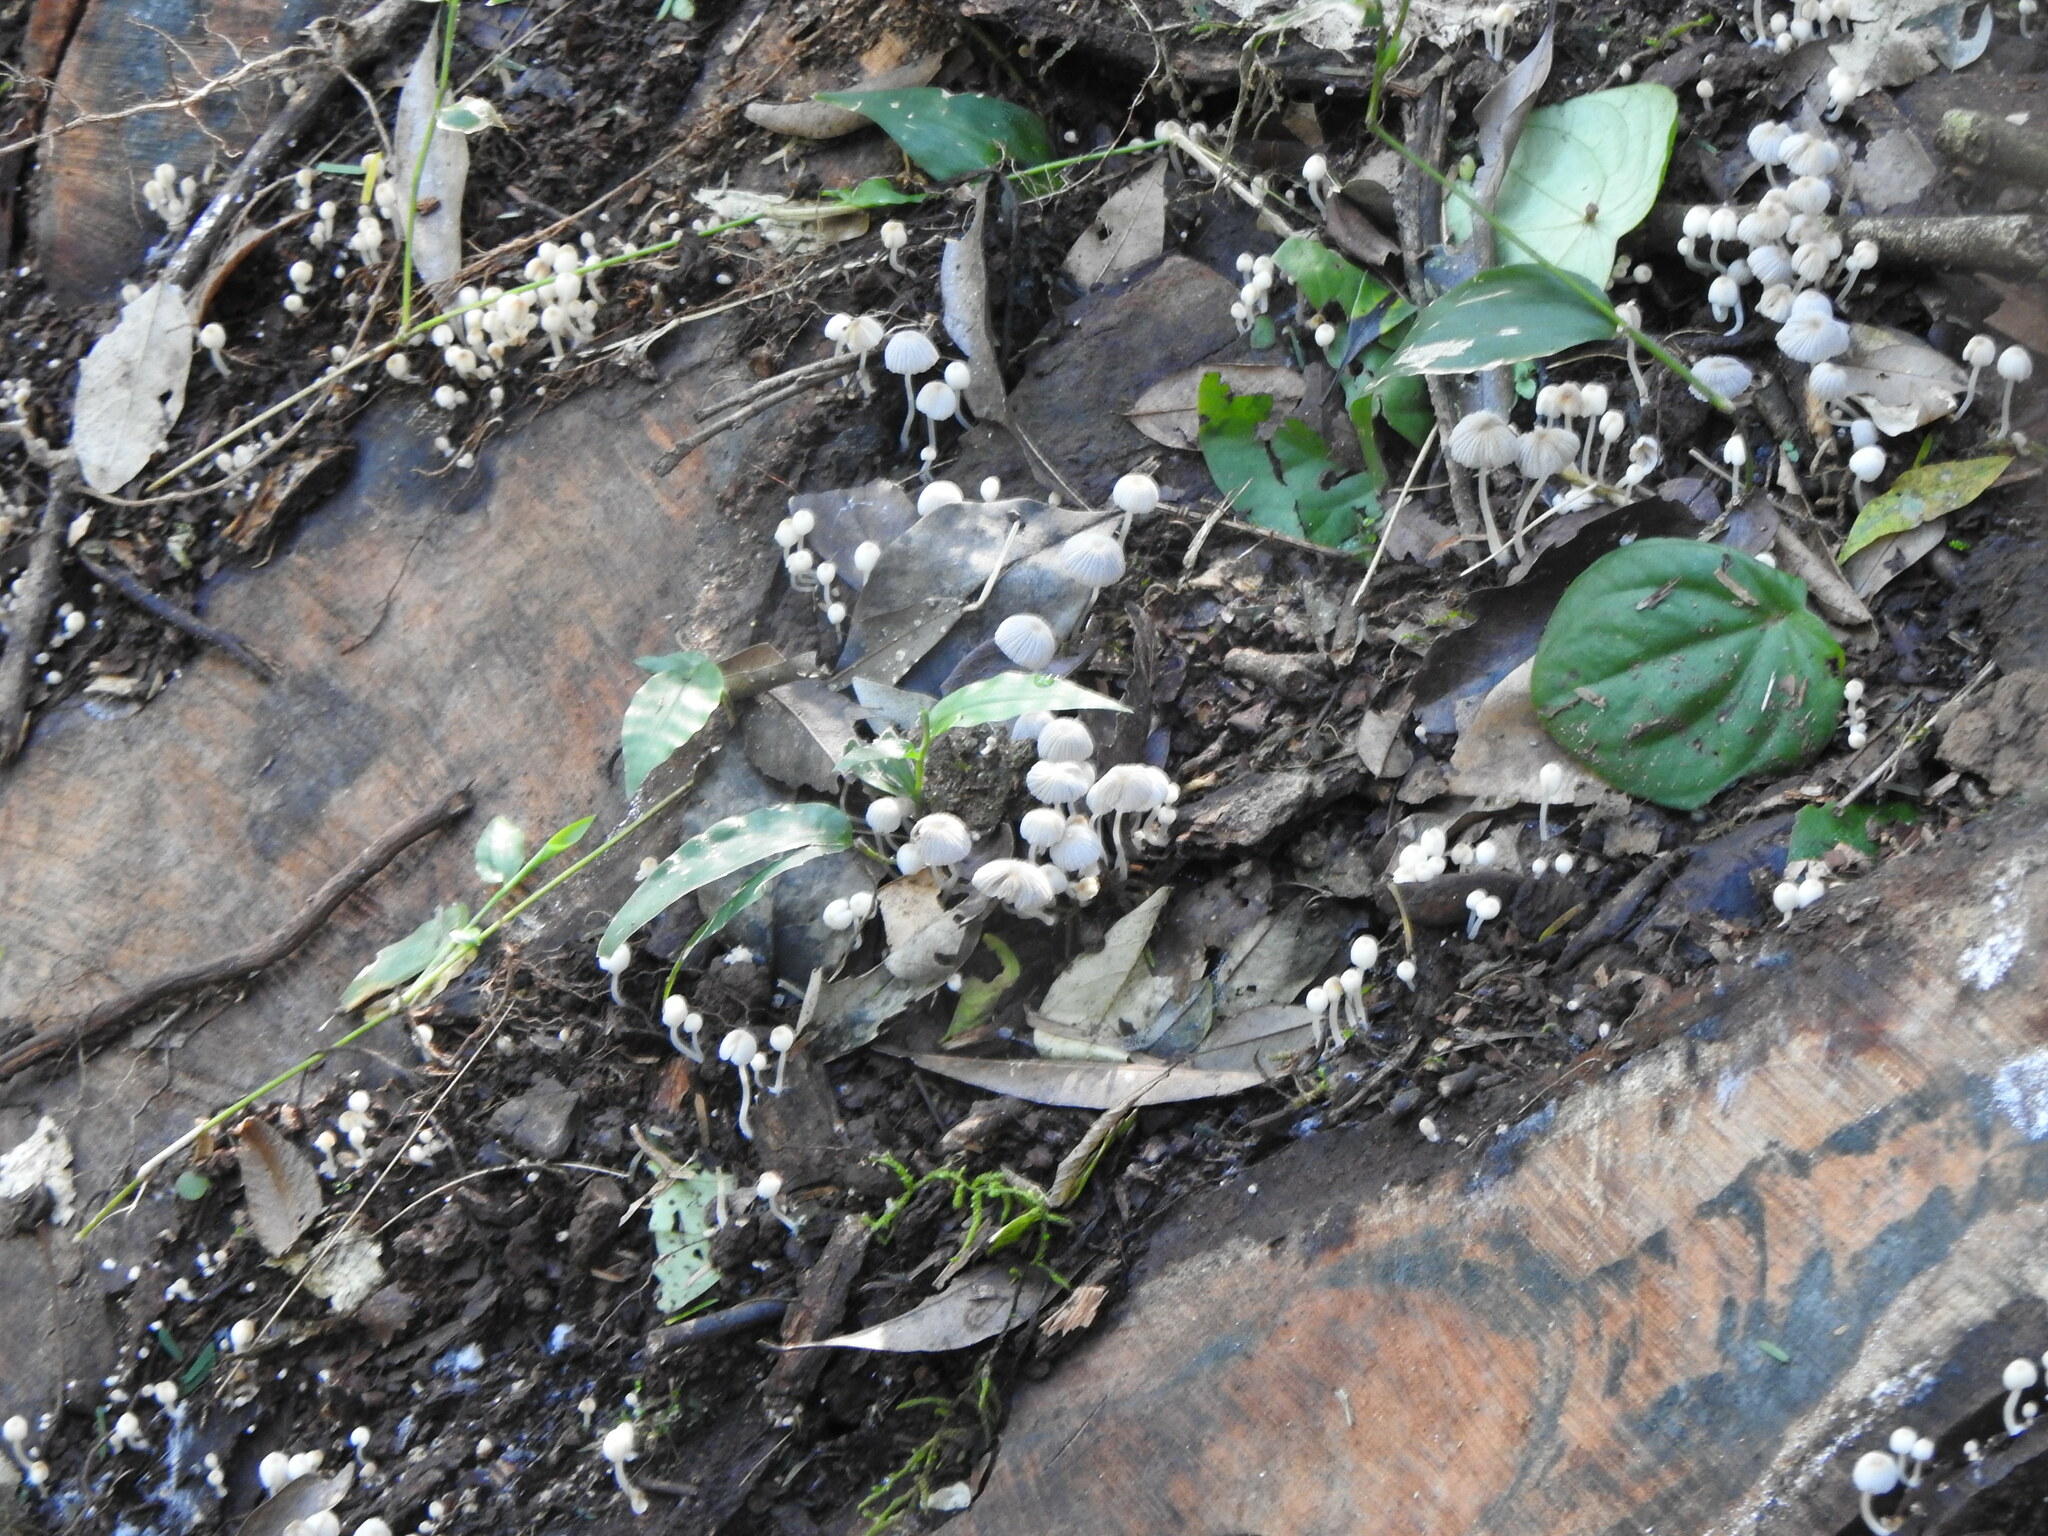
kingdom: Fungi
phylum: Basidiomycota
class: Agaricomycetes
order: Agaricales
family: Psathyrellaceae
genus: Coprinellus
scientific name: Coprinellus disseminatus
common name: Fairies' bonnets
